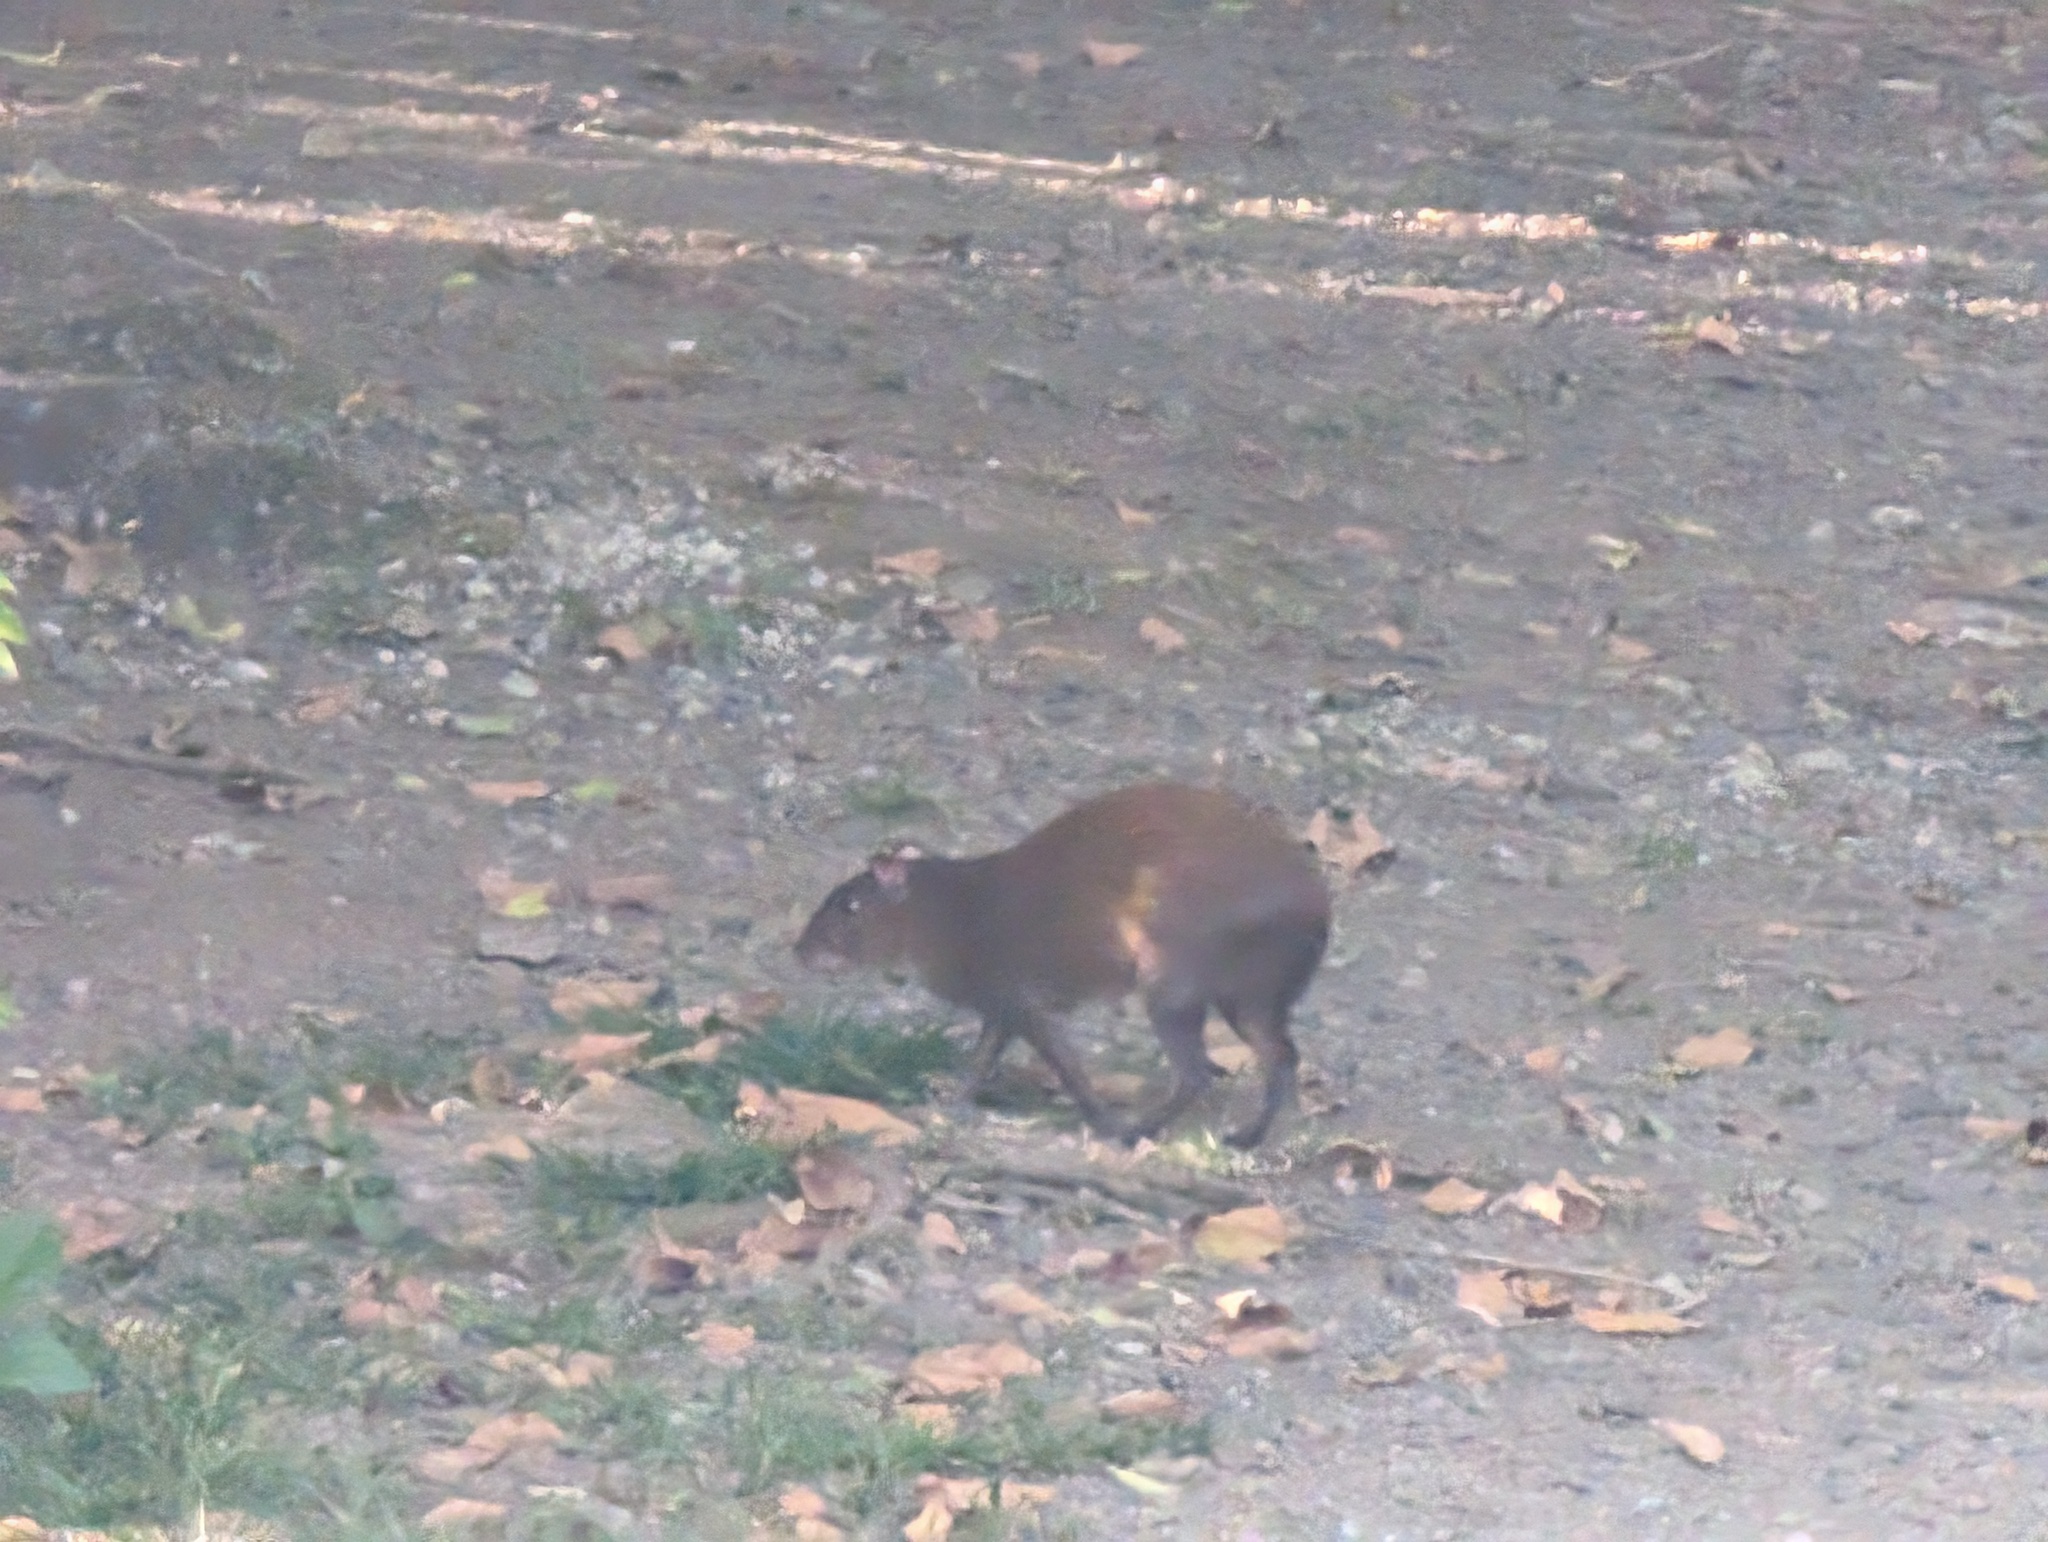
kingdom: Animalia
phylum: Chordata
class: Mammalia
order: Rodentia
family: Dasyproctidae
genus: Dasyprocta
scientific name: Dasyprocta punctata
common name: Central american agouti
